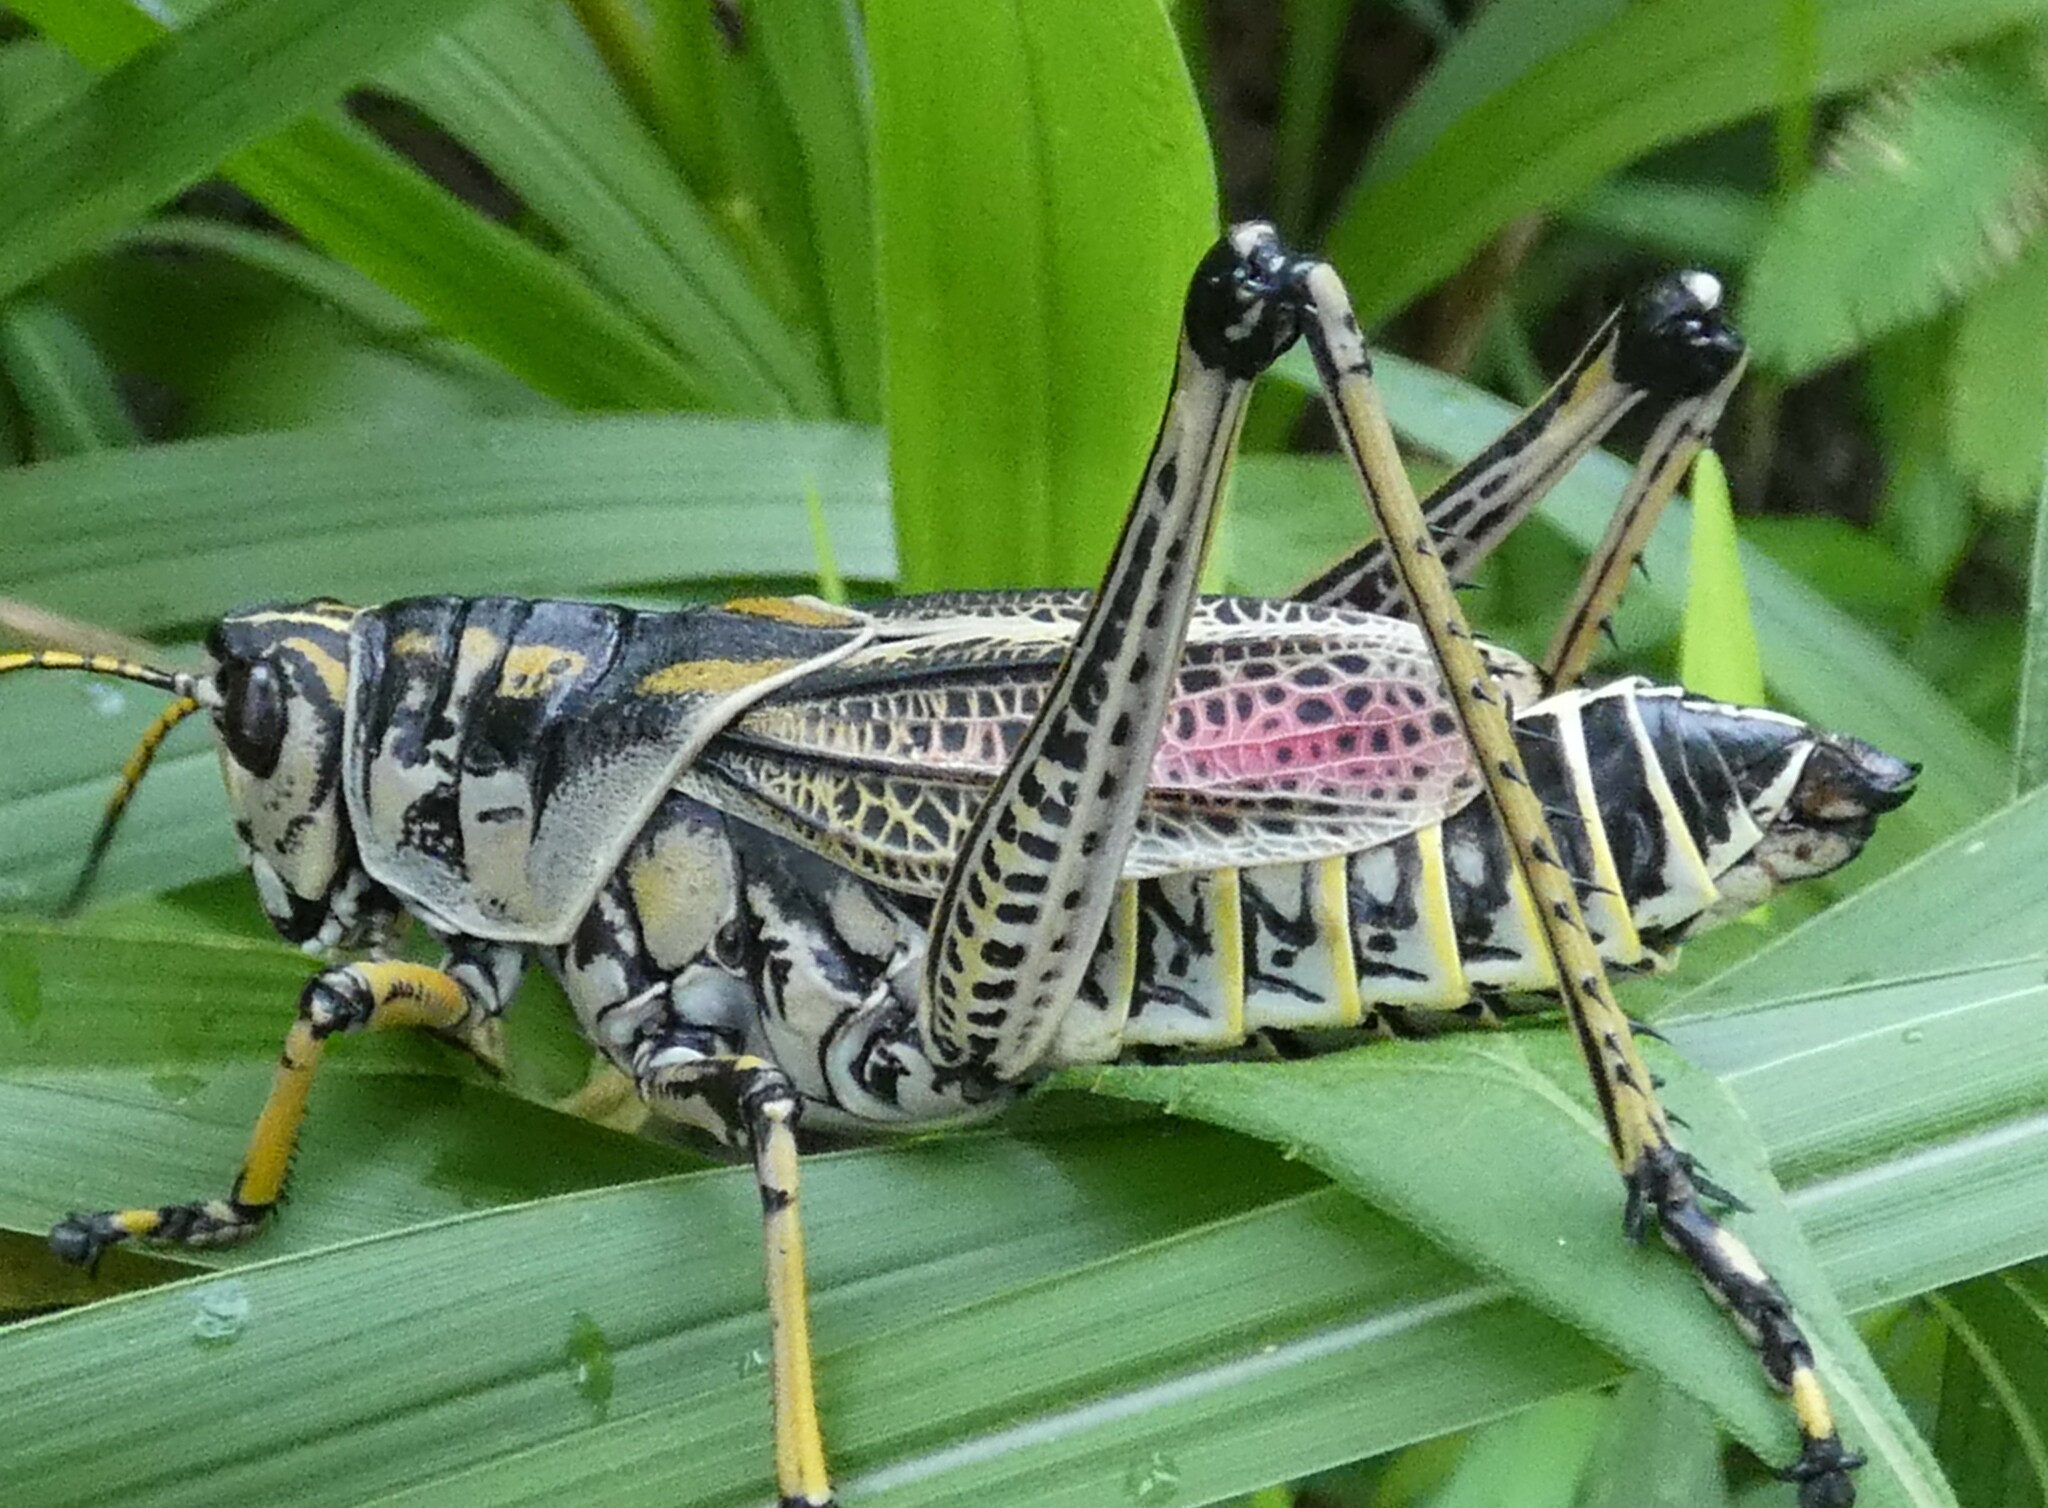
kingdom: Animalia
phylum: Arthropoda
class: Insecta
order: Orthoptera
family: Romaleidae
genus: Romalea
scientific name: Romalea microptera
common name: Eastern lubber grasshopper
